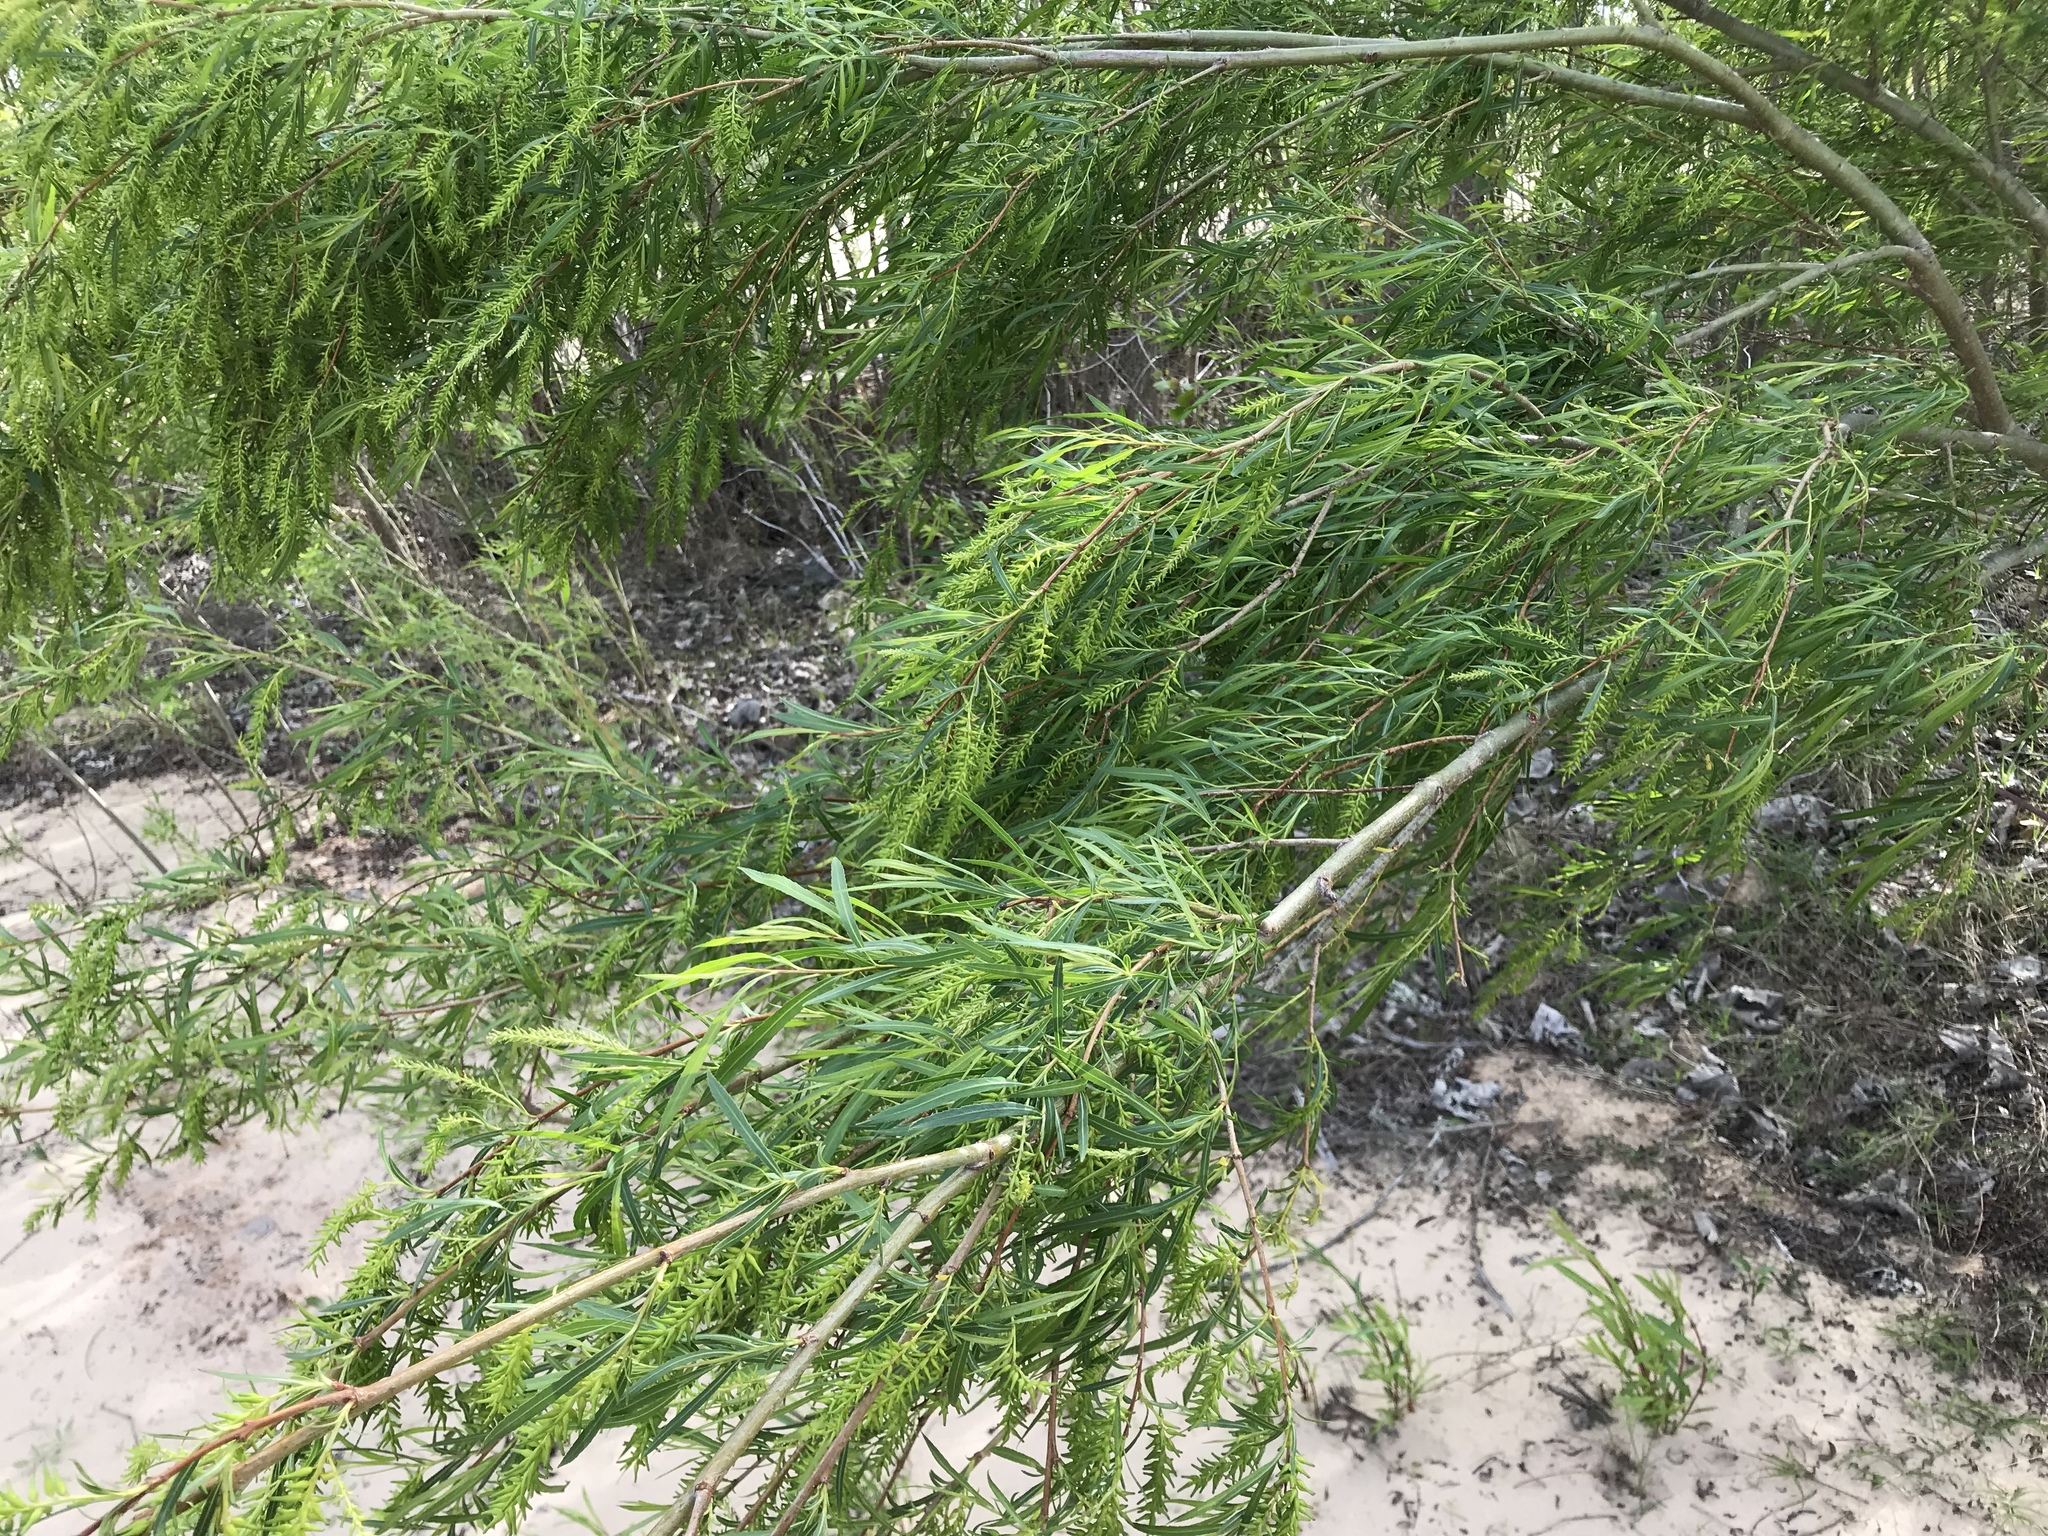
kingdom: Plantae
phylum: Tracheophyta
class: Magnoliopsida
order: Malpighiales
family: Salicaceae
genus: Salix
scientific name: Salix nigra
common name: Black willow
